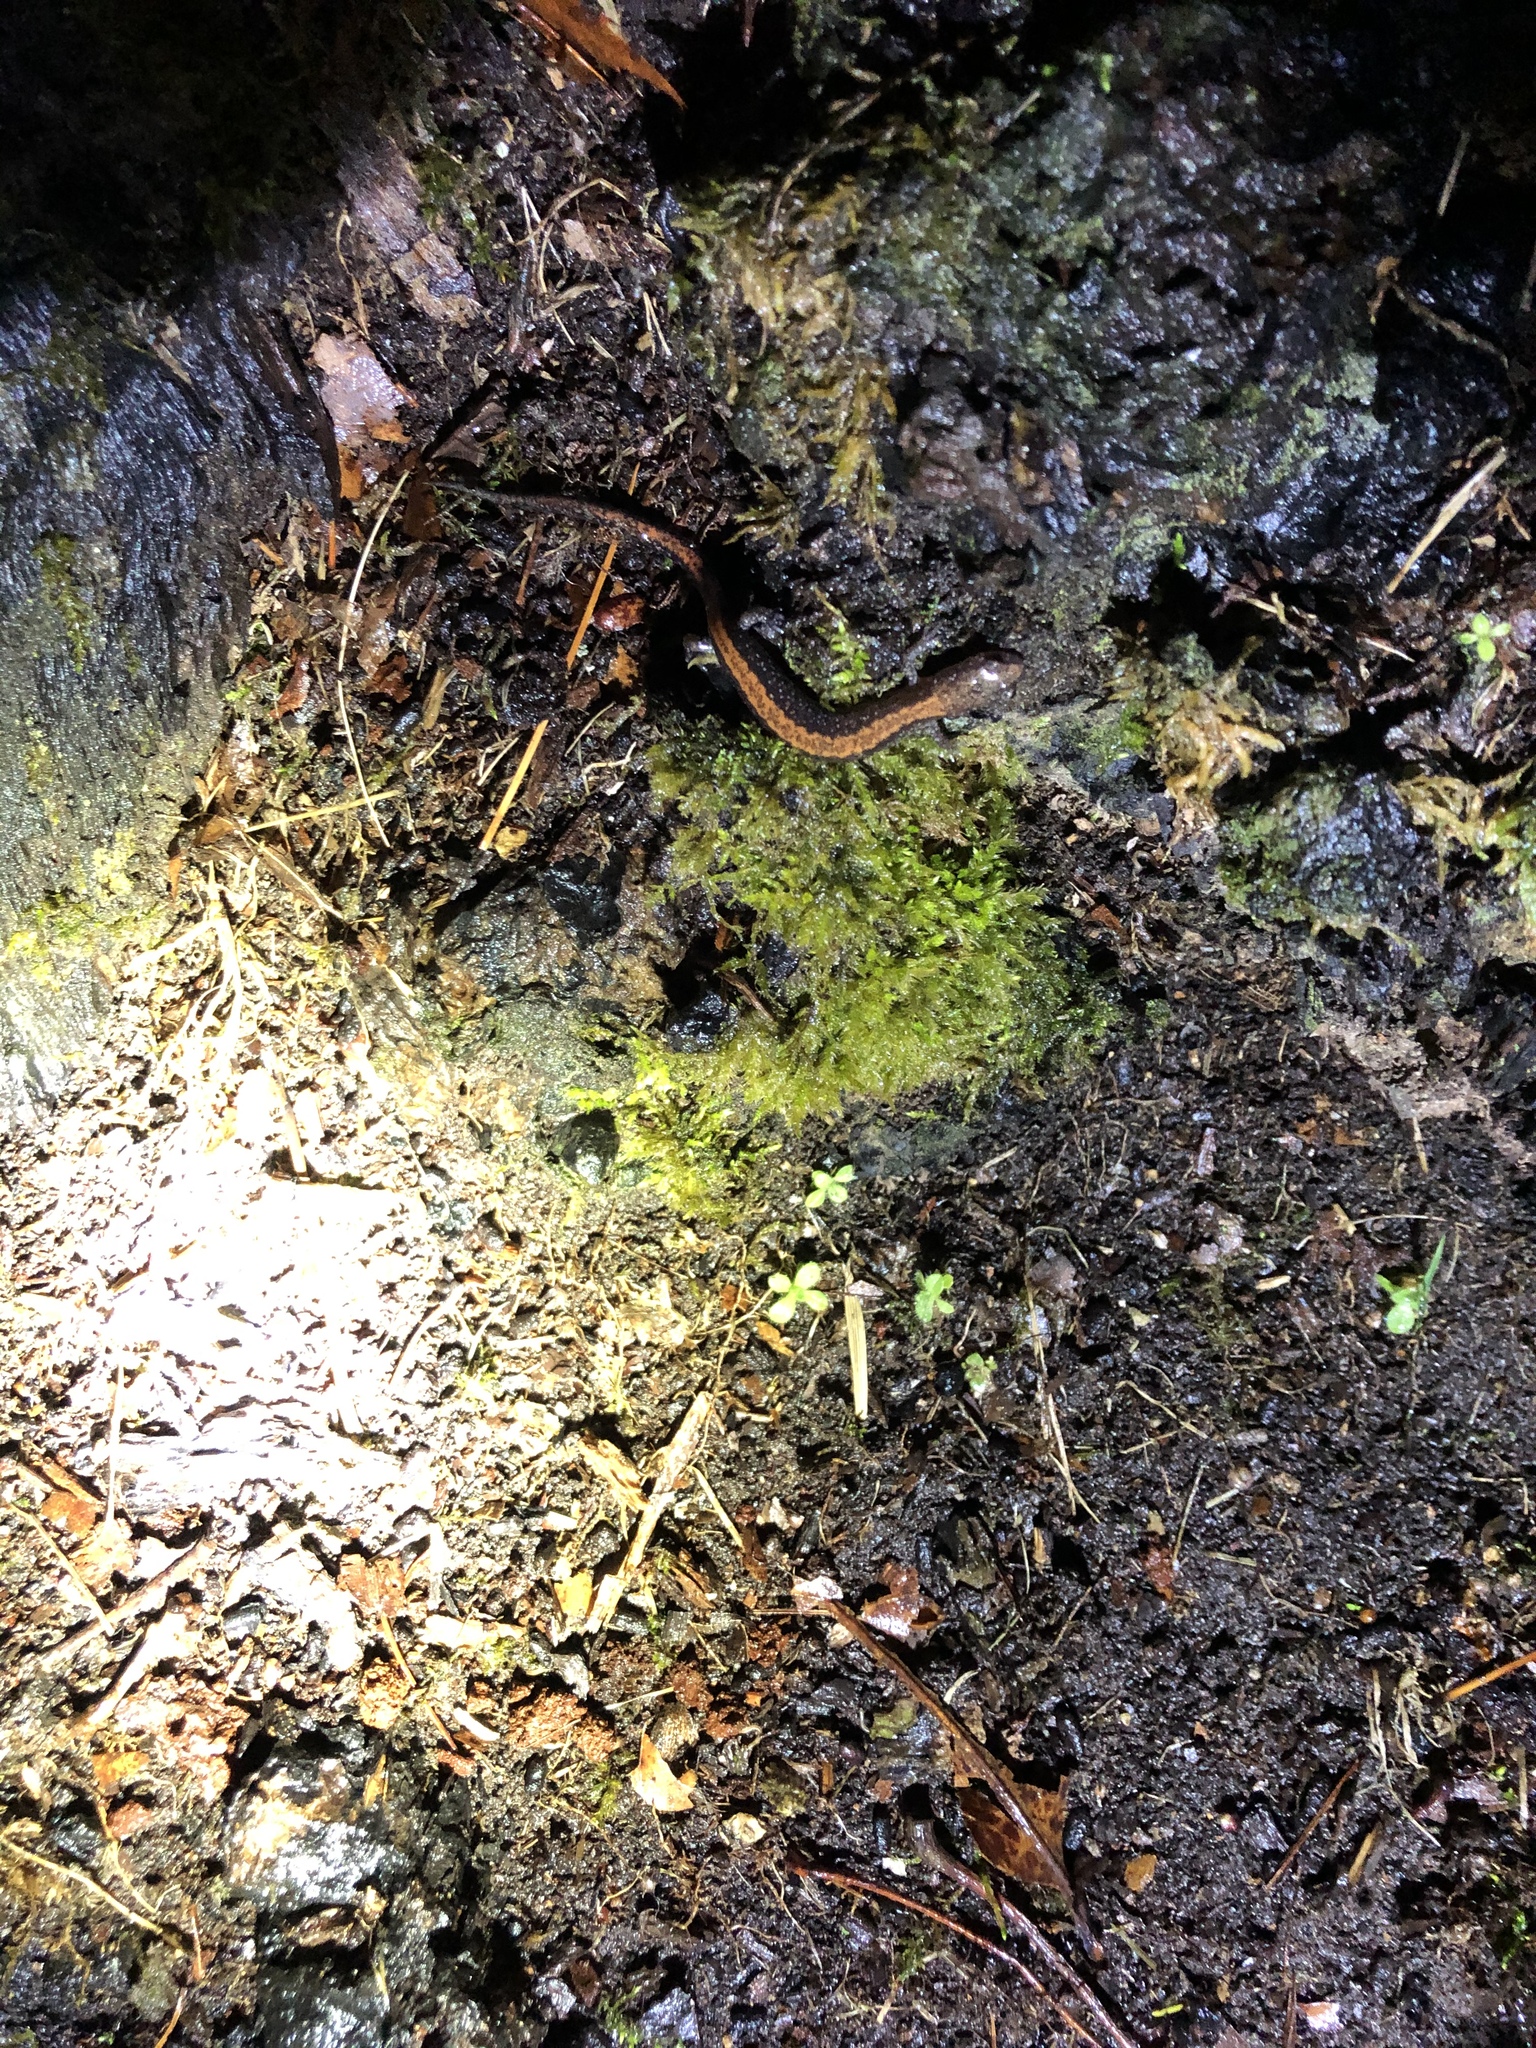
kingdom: Animalia
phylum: Chordata
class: Amphibia
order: Caudata
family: Plethodontidae
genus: Plethodon
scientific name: Plethodon cinereus
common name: Redback salamander
